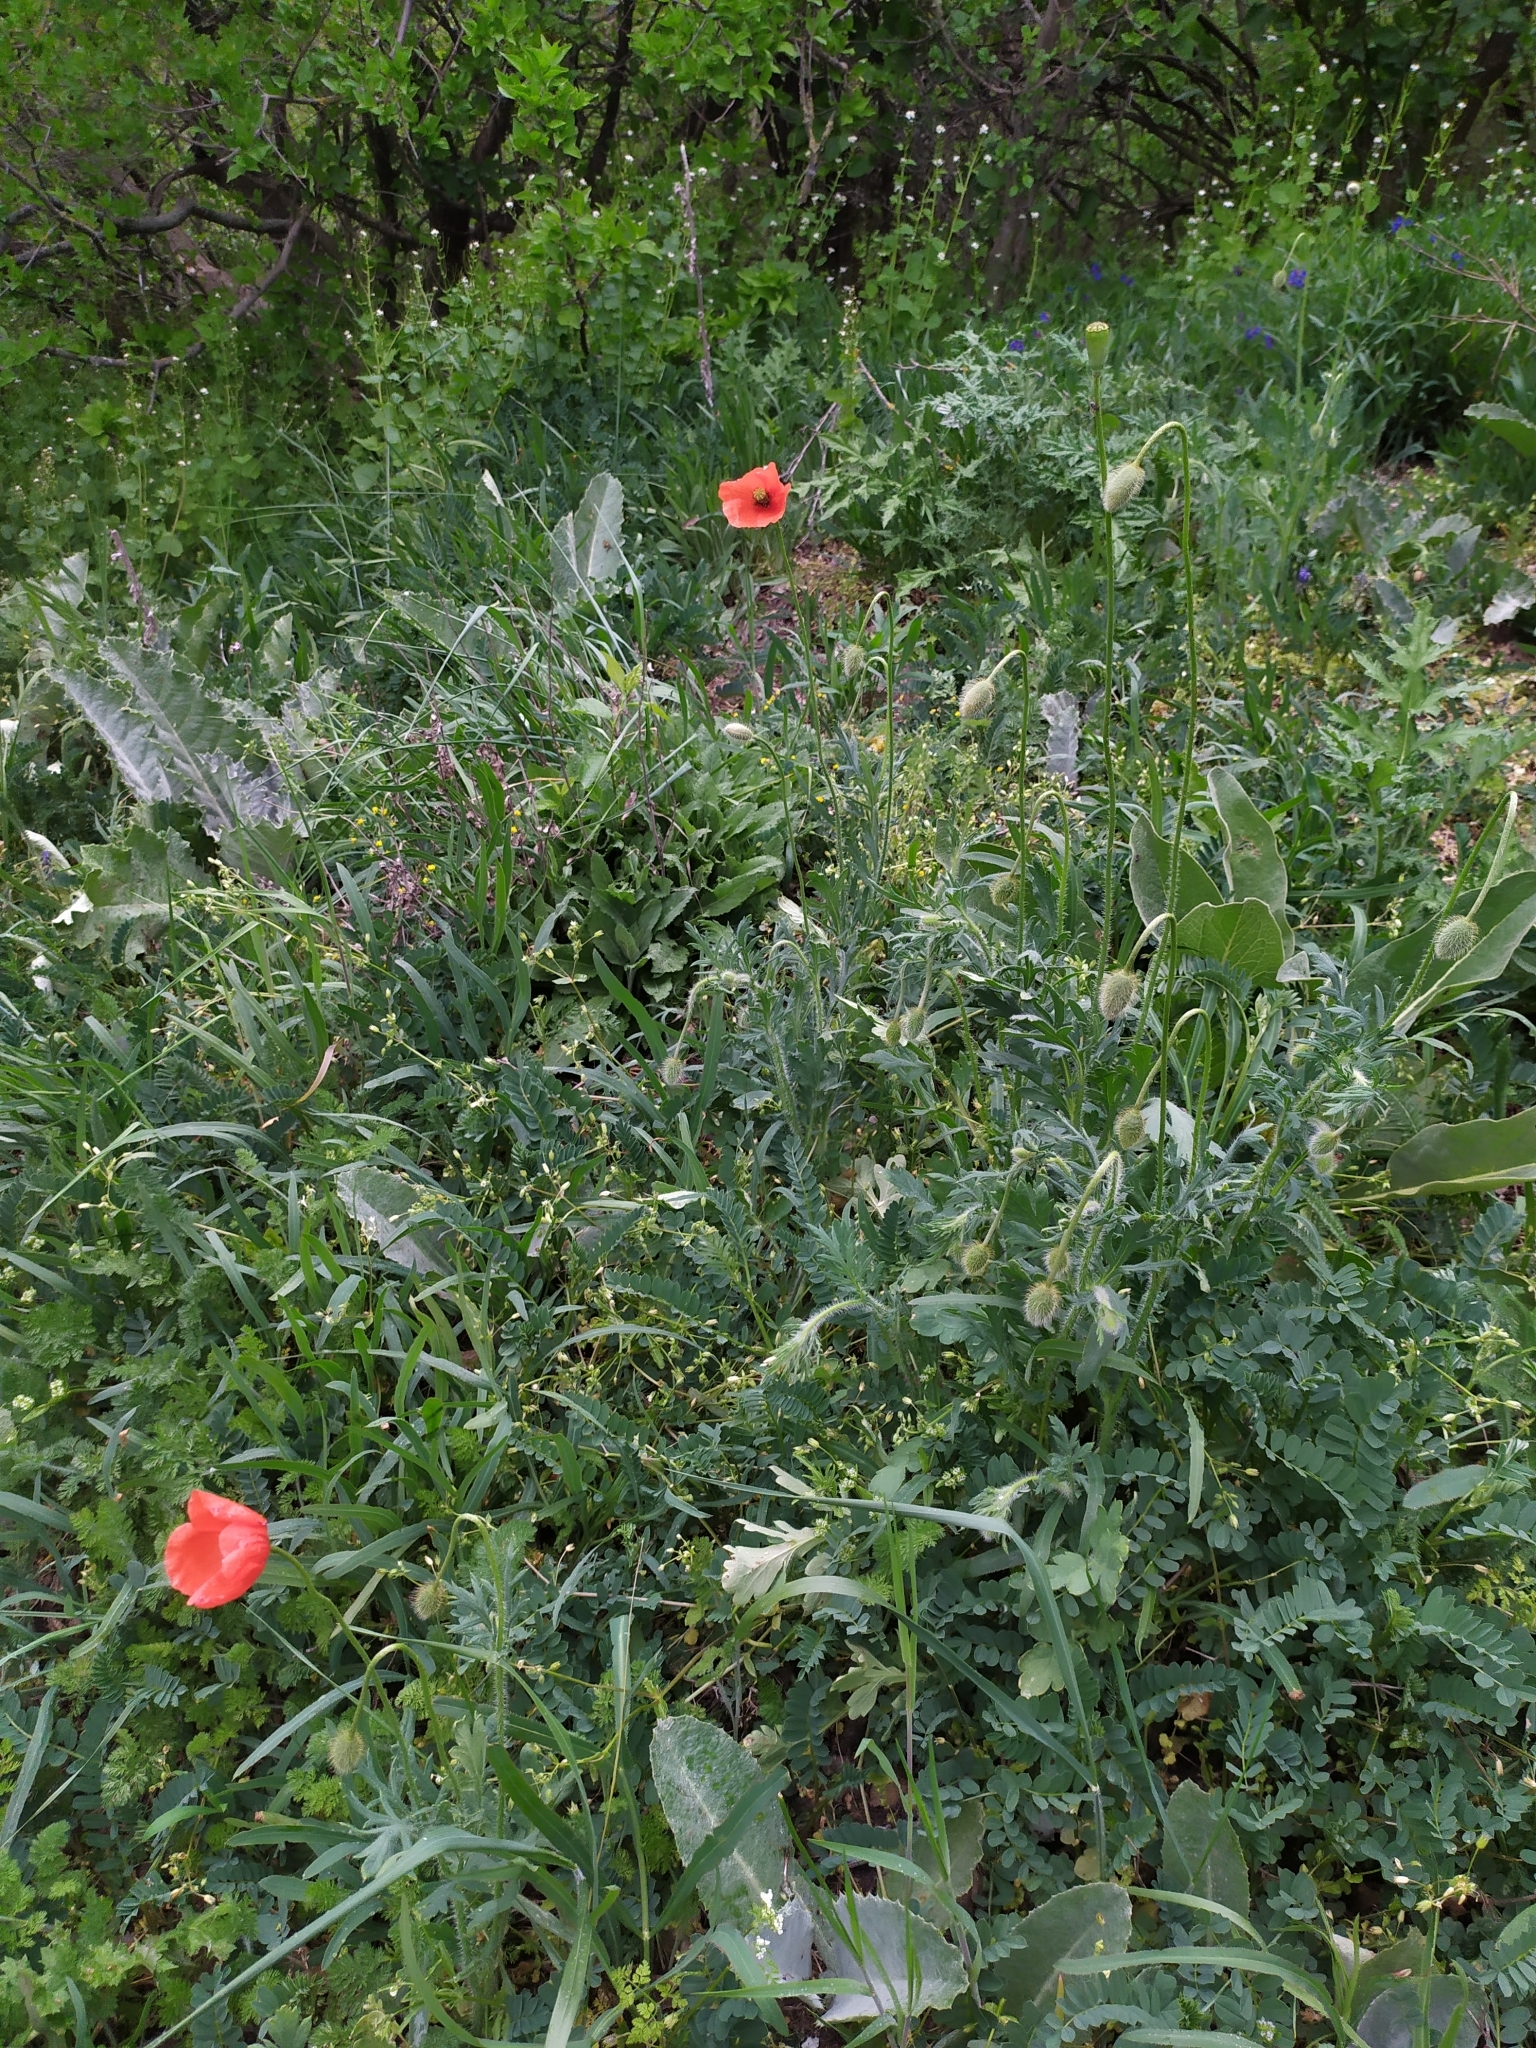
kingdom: Plantae
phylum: Tracheophyta
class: Magnoliopsida
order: Ranunculales
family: Papaveraceae
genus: Papaver
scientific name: Papaver dubium
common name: Long-headed poppy
